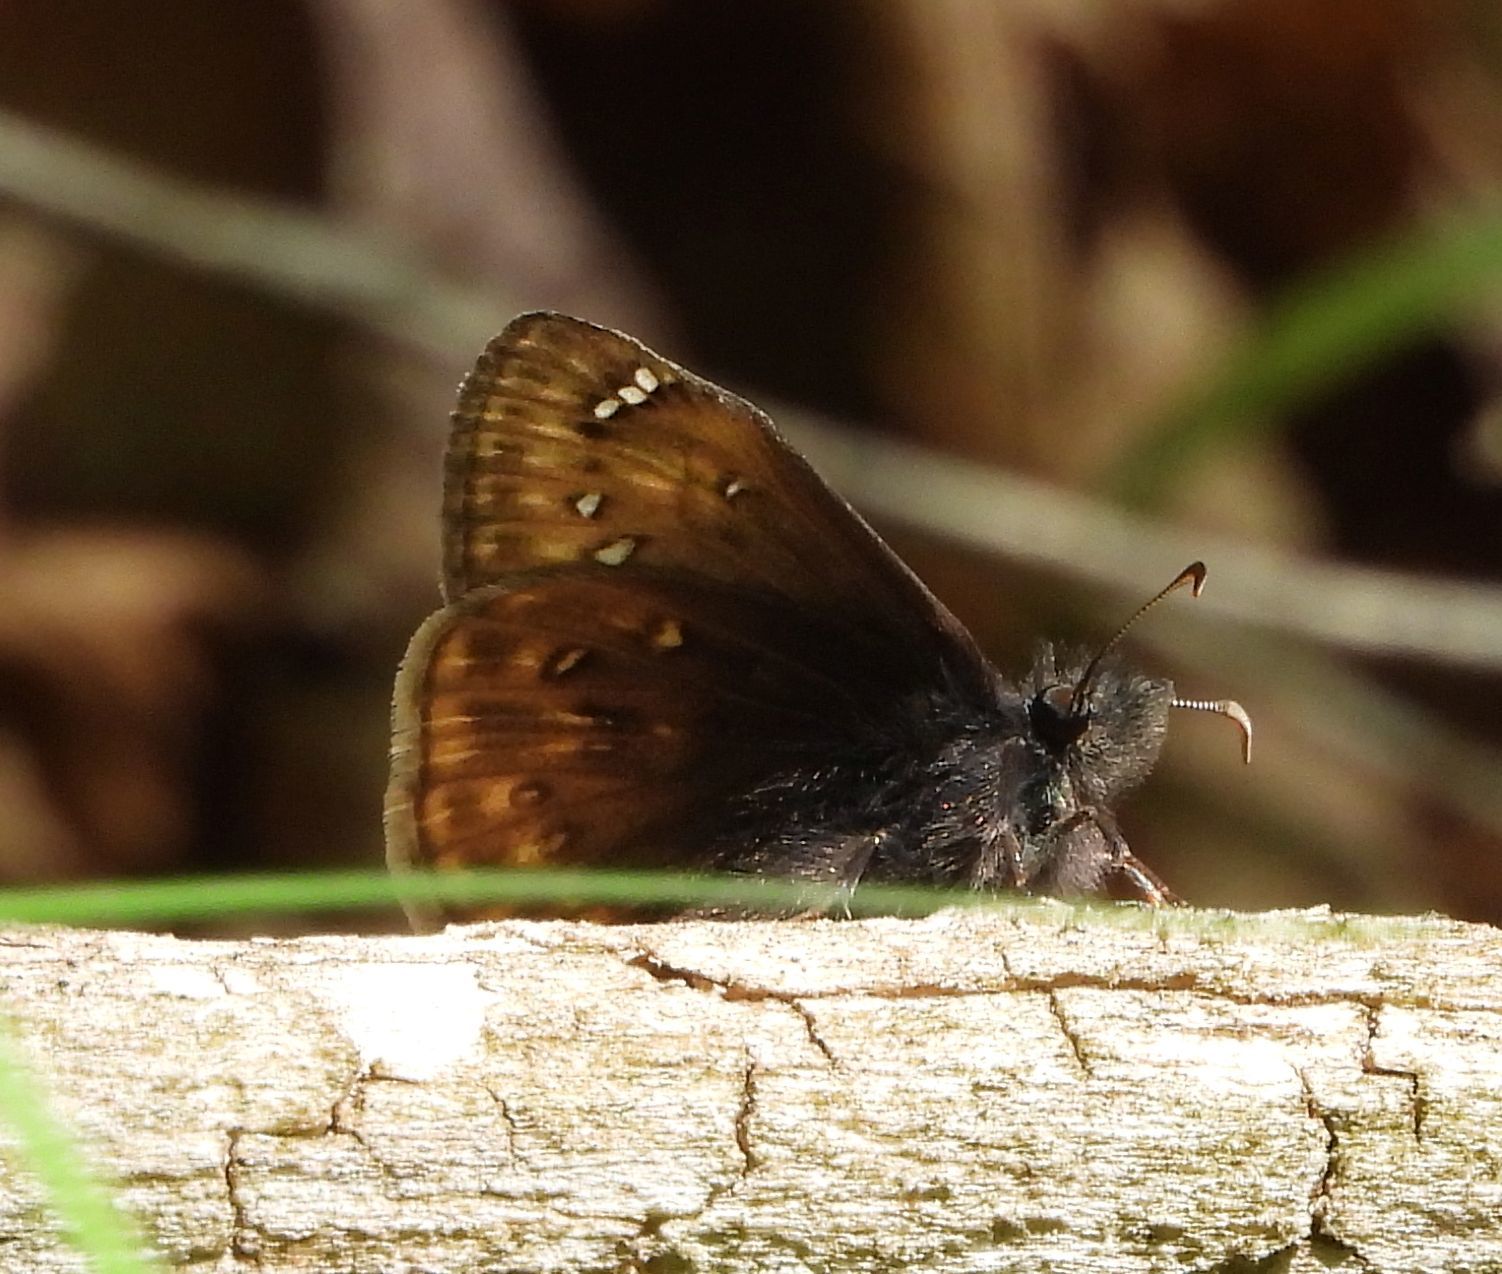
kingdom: Animalia
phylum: Arthropoda
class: Insecta
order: Lepidoptera
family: Hesperiidae
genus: Erynnis
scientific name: Erynnis juvenalis
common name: Juvenal's duskywing
